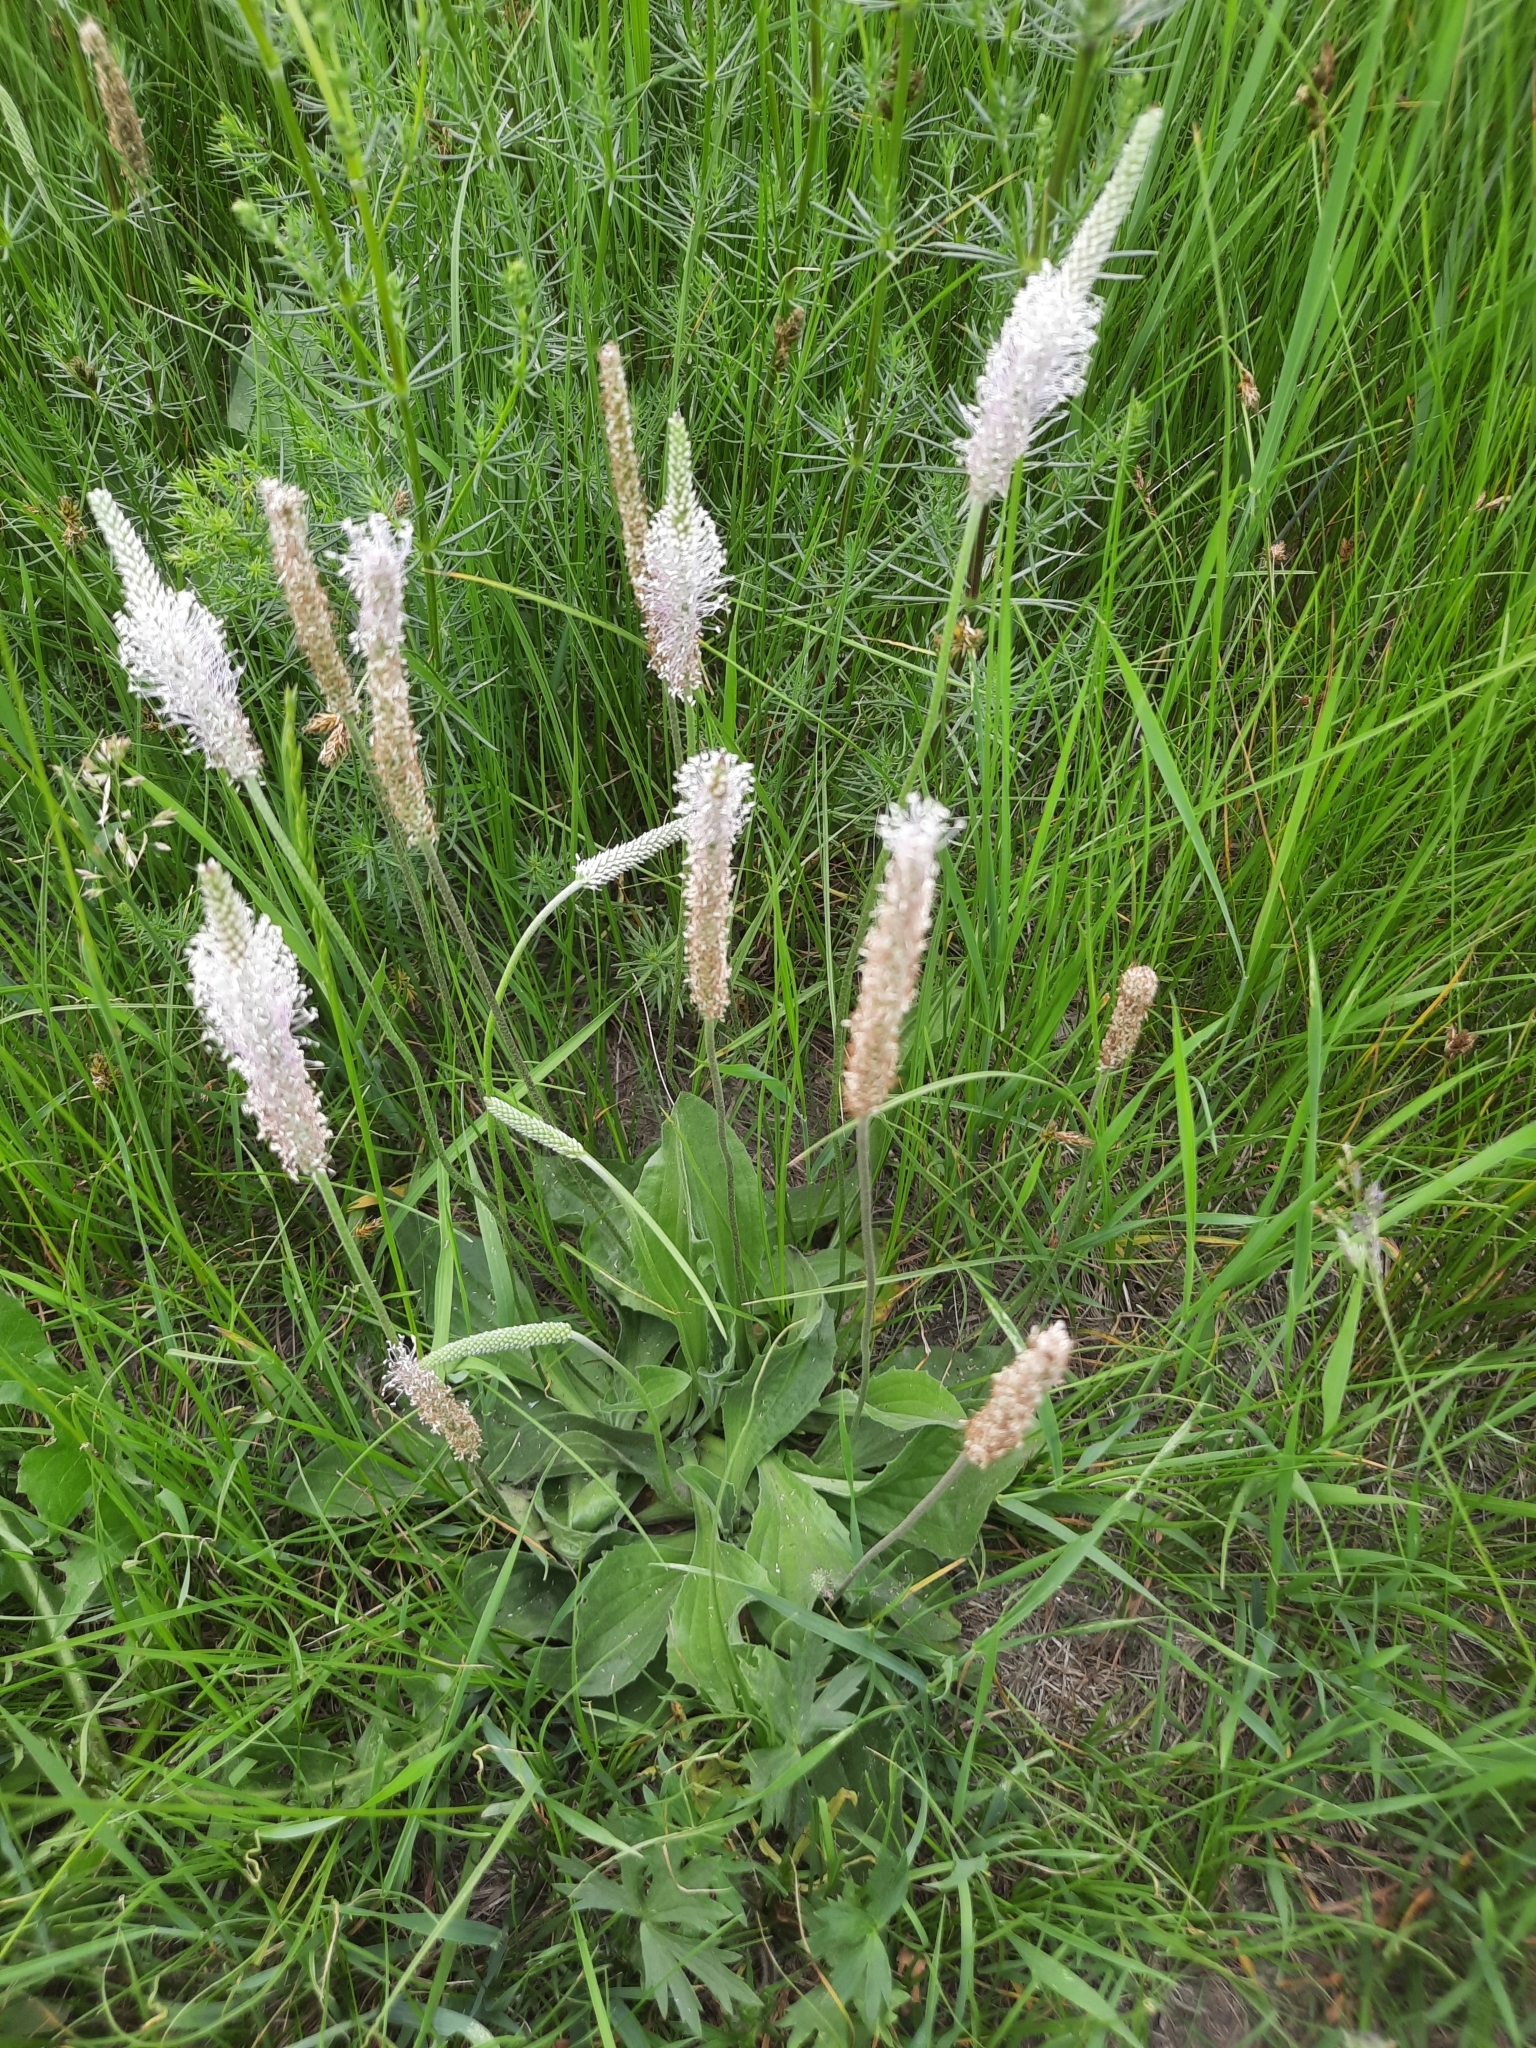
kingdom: Plantae
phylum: Tracheophyta
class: Magnoliopsida
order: Lamiales
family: Plantaginaceae
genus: Plantago
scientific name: Plantago media
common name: Hoary plantain
